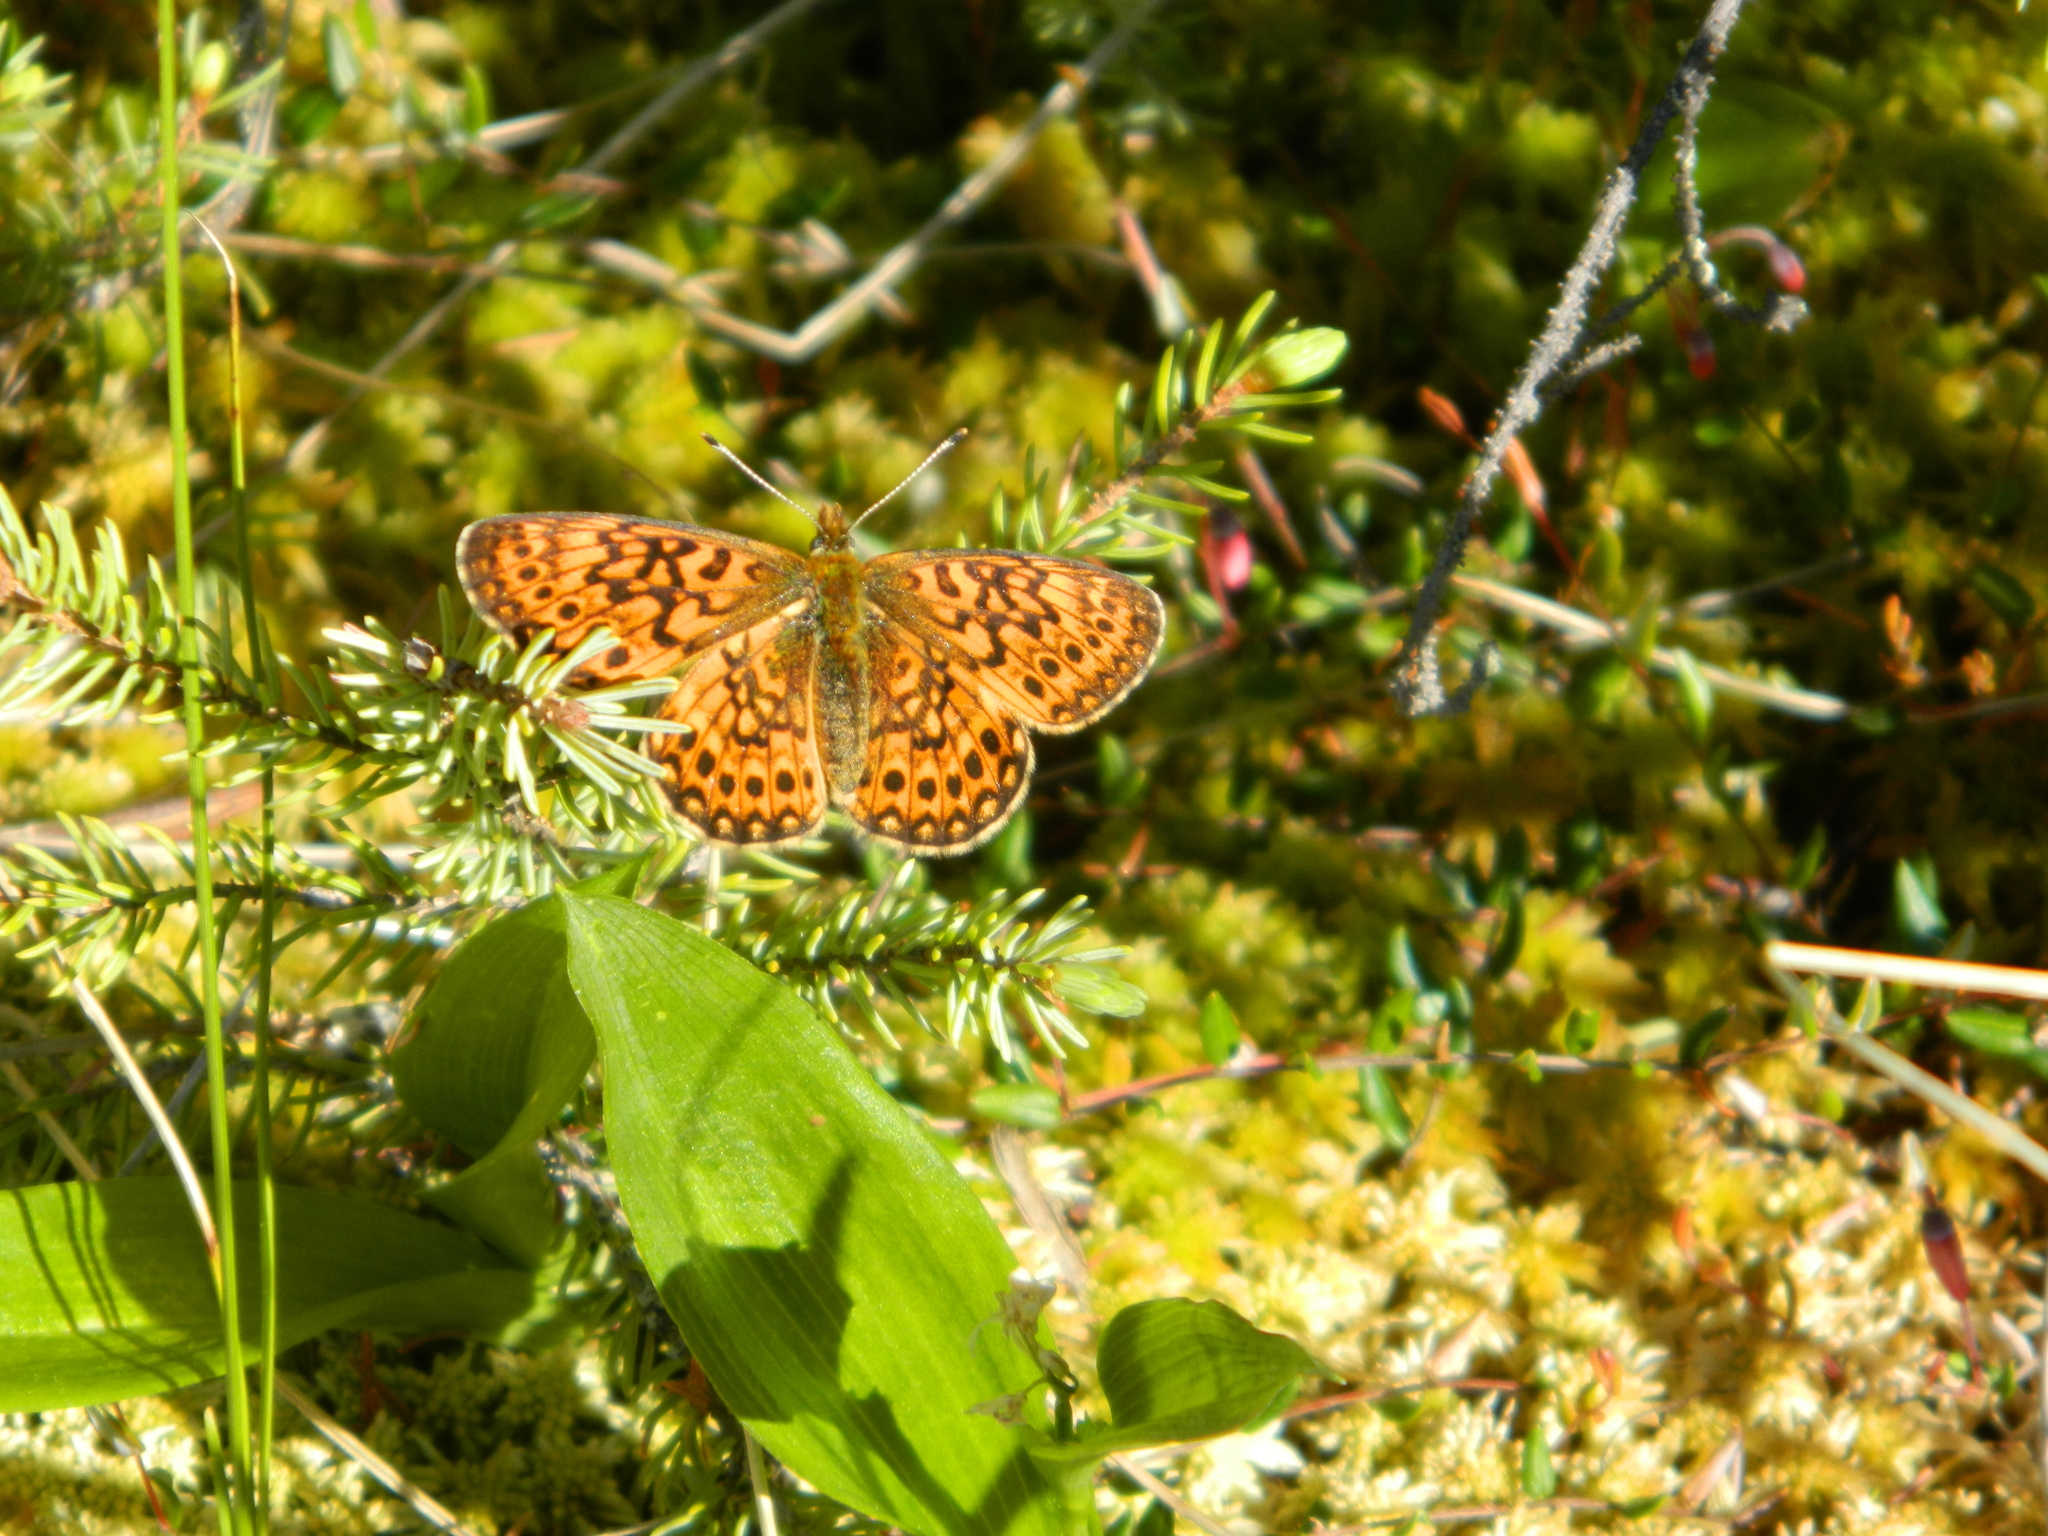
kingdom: Animalia
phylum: Arthropoda
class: Insecta
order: Lepidoptera
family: Nymphalidae
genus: Boloria
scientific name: Boloria eunomia
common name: Bog fritillary
